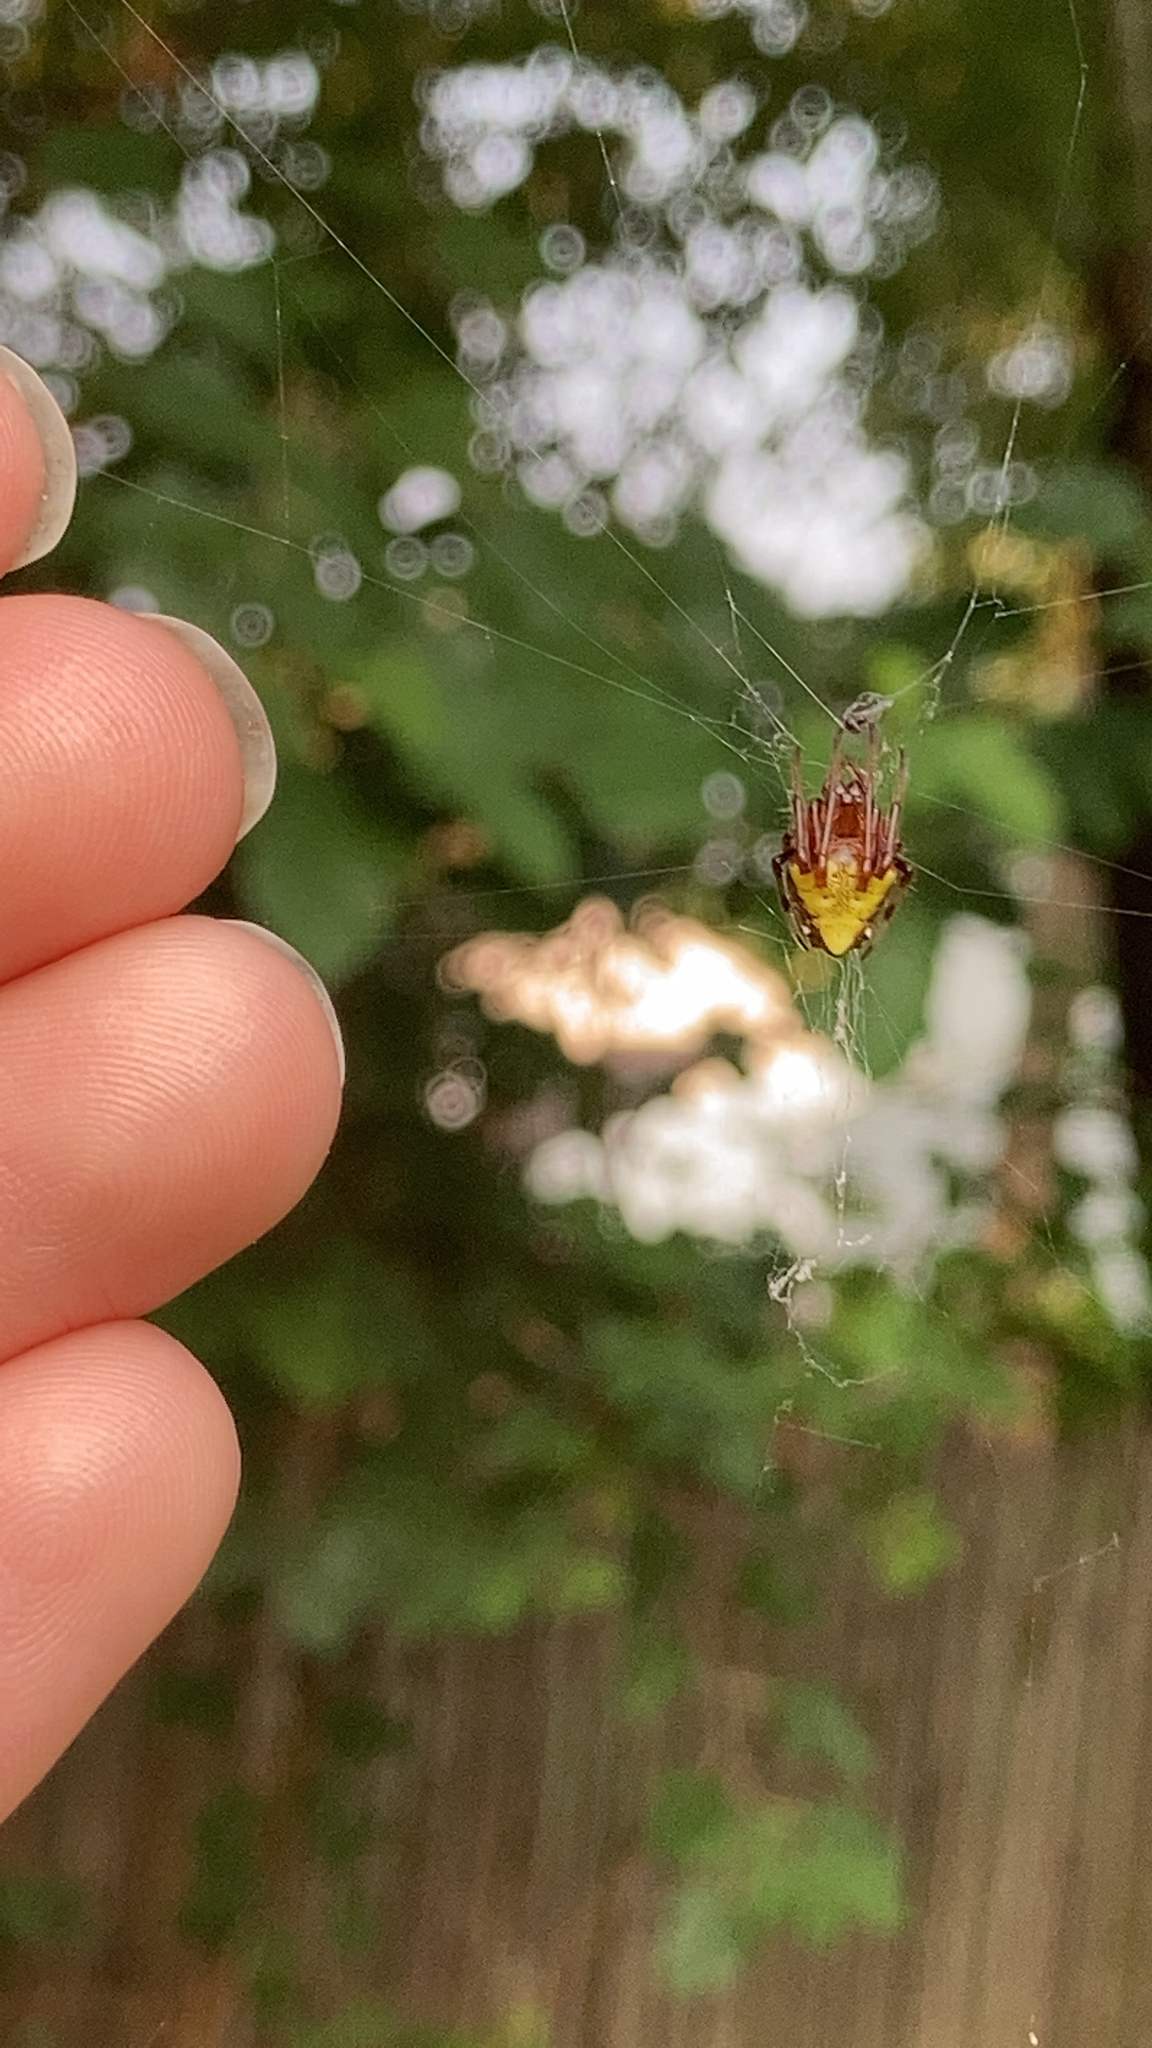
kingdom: Animalia
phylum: Arthropoda
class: Arachnida
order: Araneae
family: Araneidae
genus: Verrucosa
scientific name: Verrucosa arenata
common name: Orb weavers
